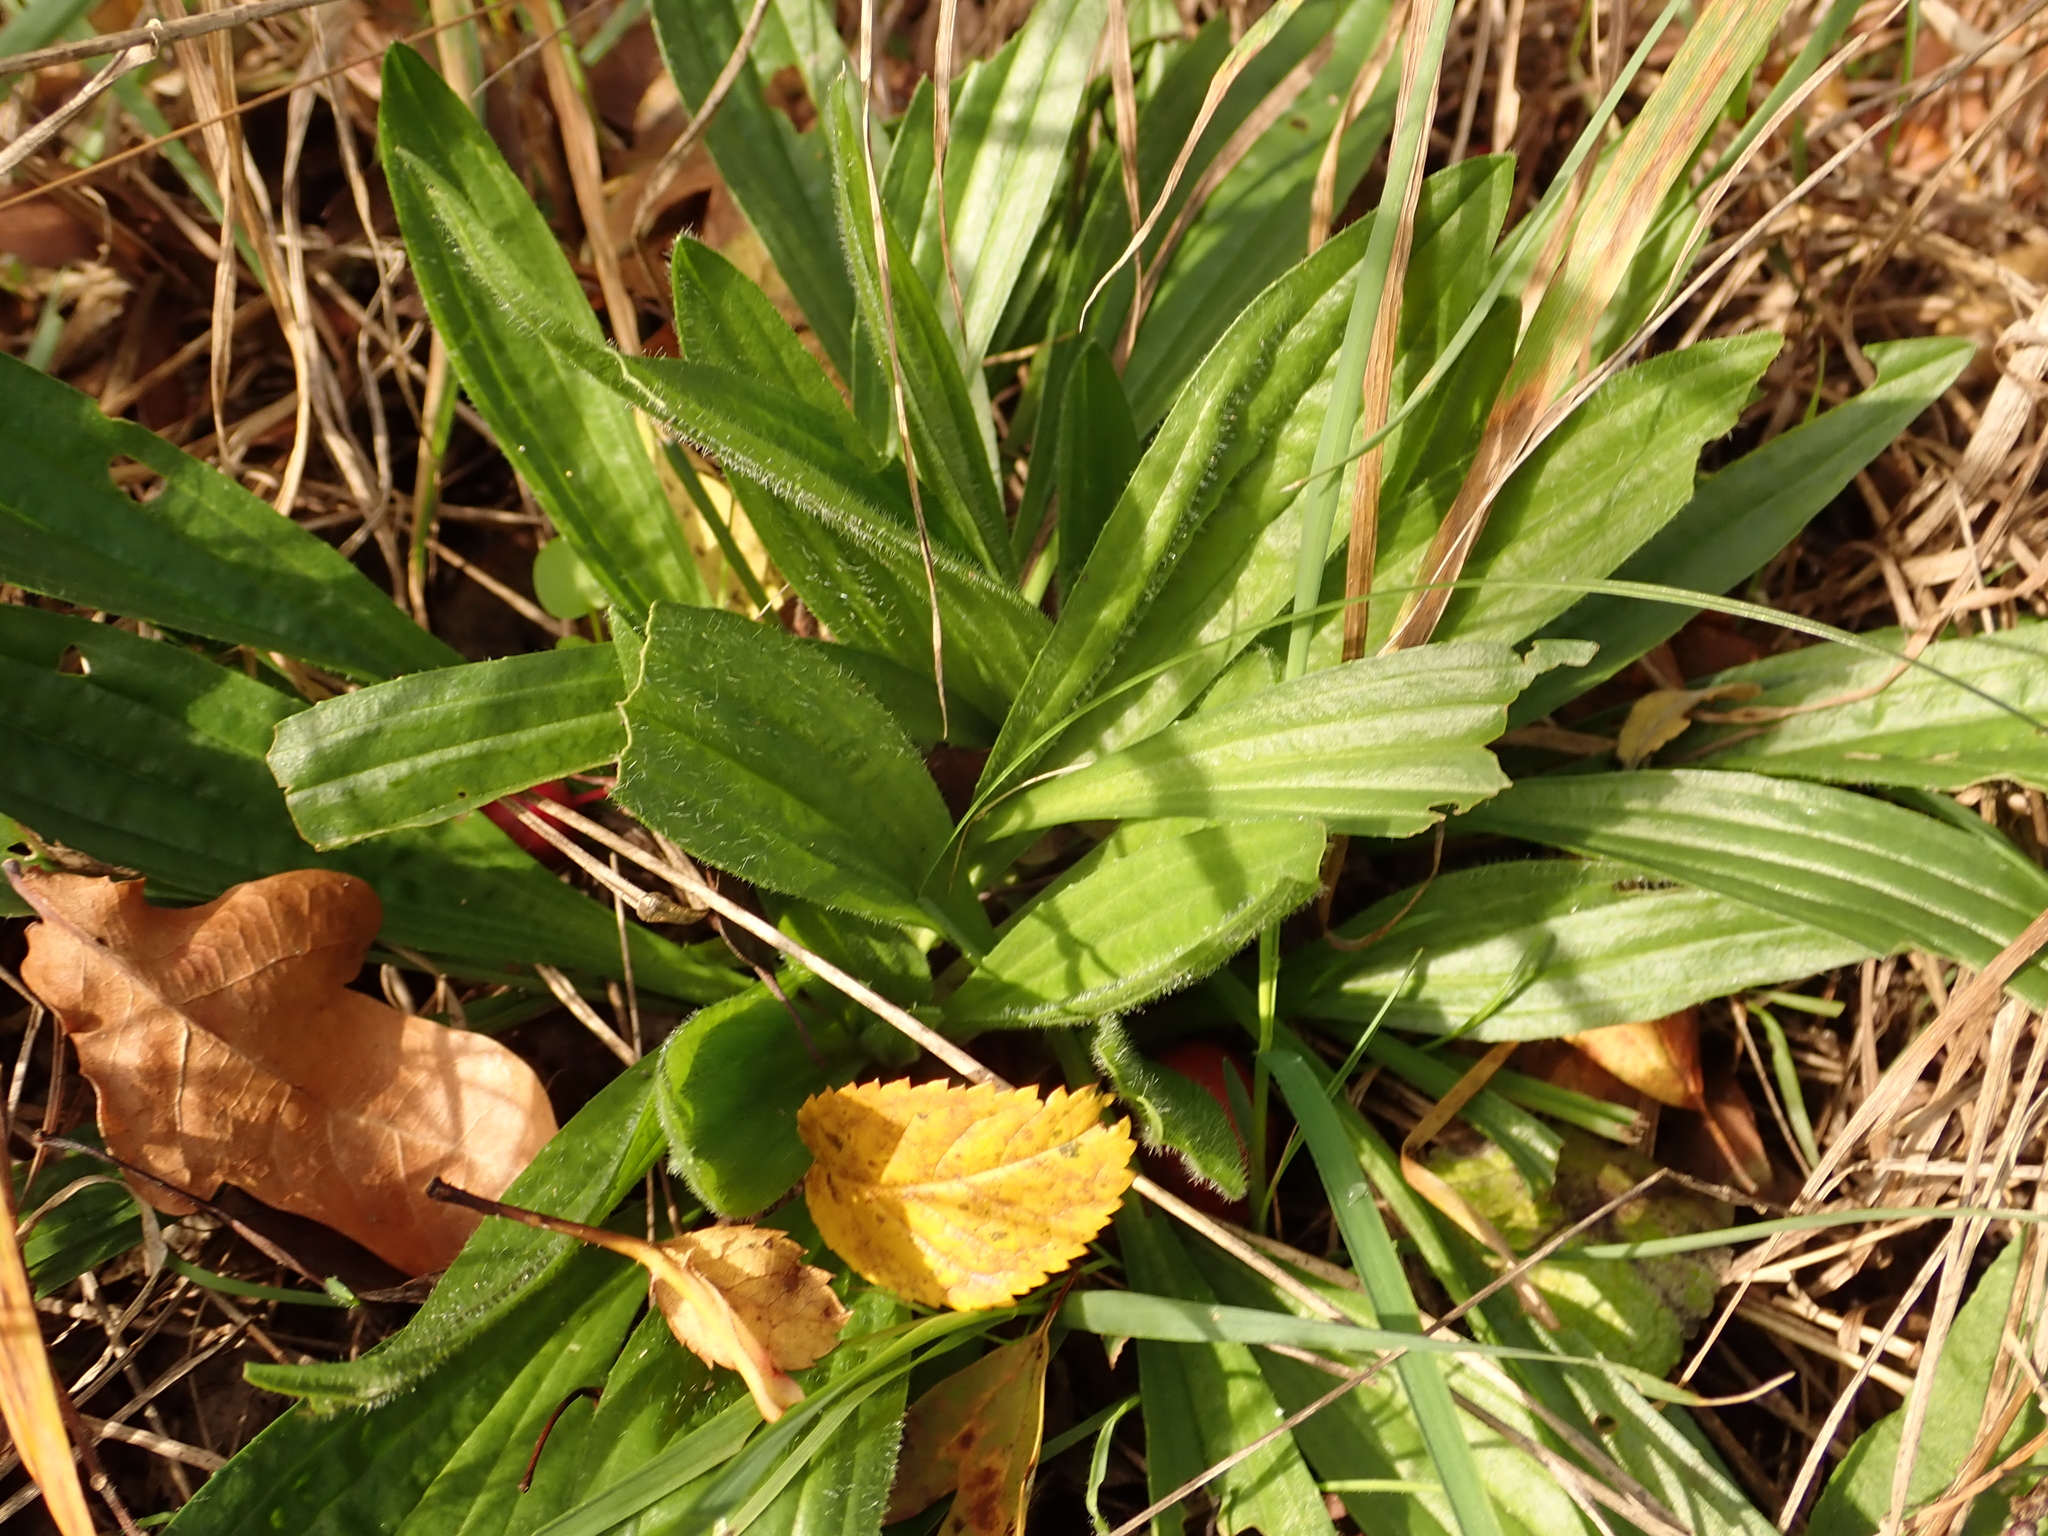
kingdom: Plantae
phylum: Tracheophyta
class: Magnoliopsida
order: Lamiales
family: Plantaginaceae
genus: Plantago
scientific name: Plantago lanceolata
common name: Ribwort plantain
